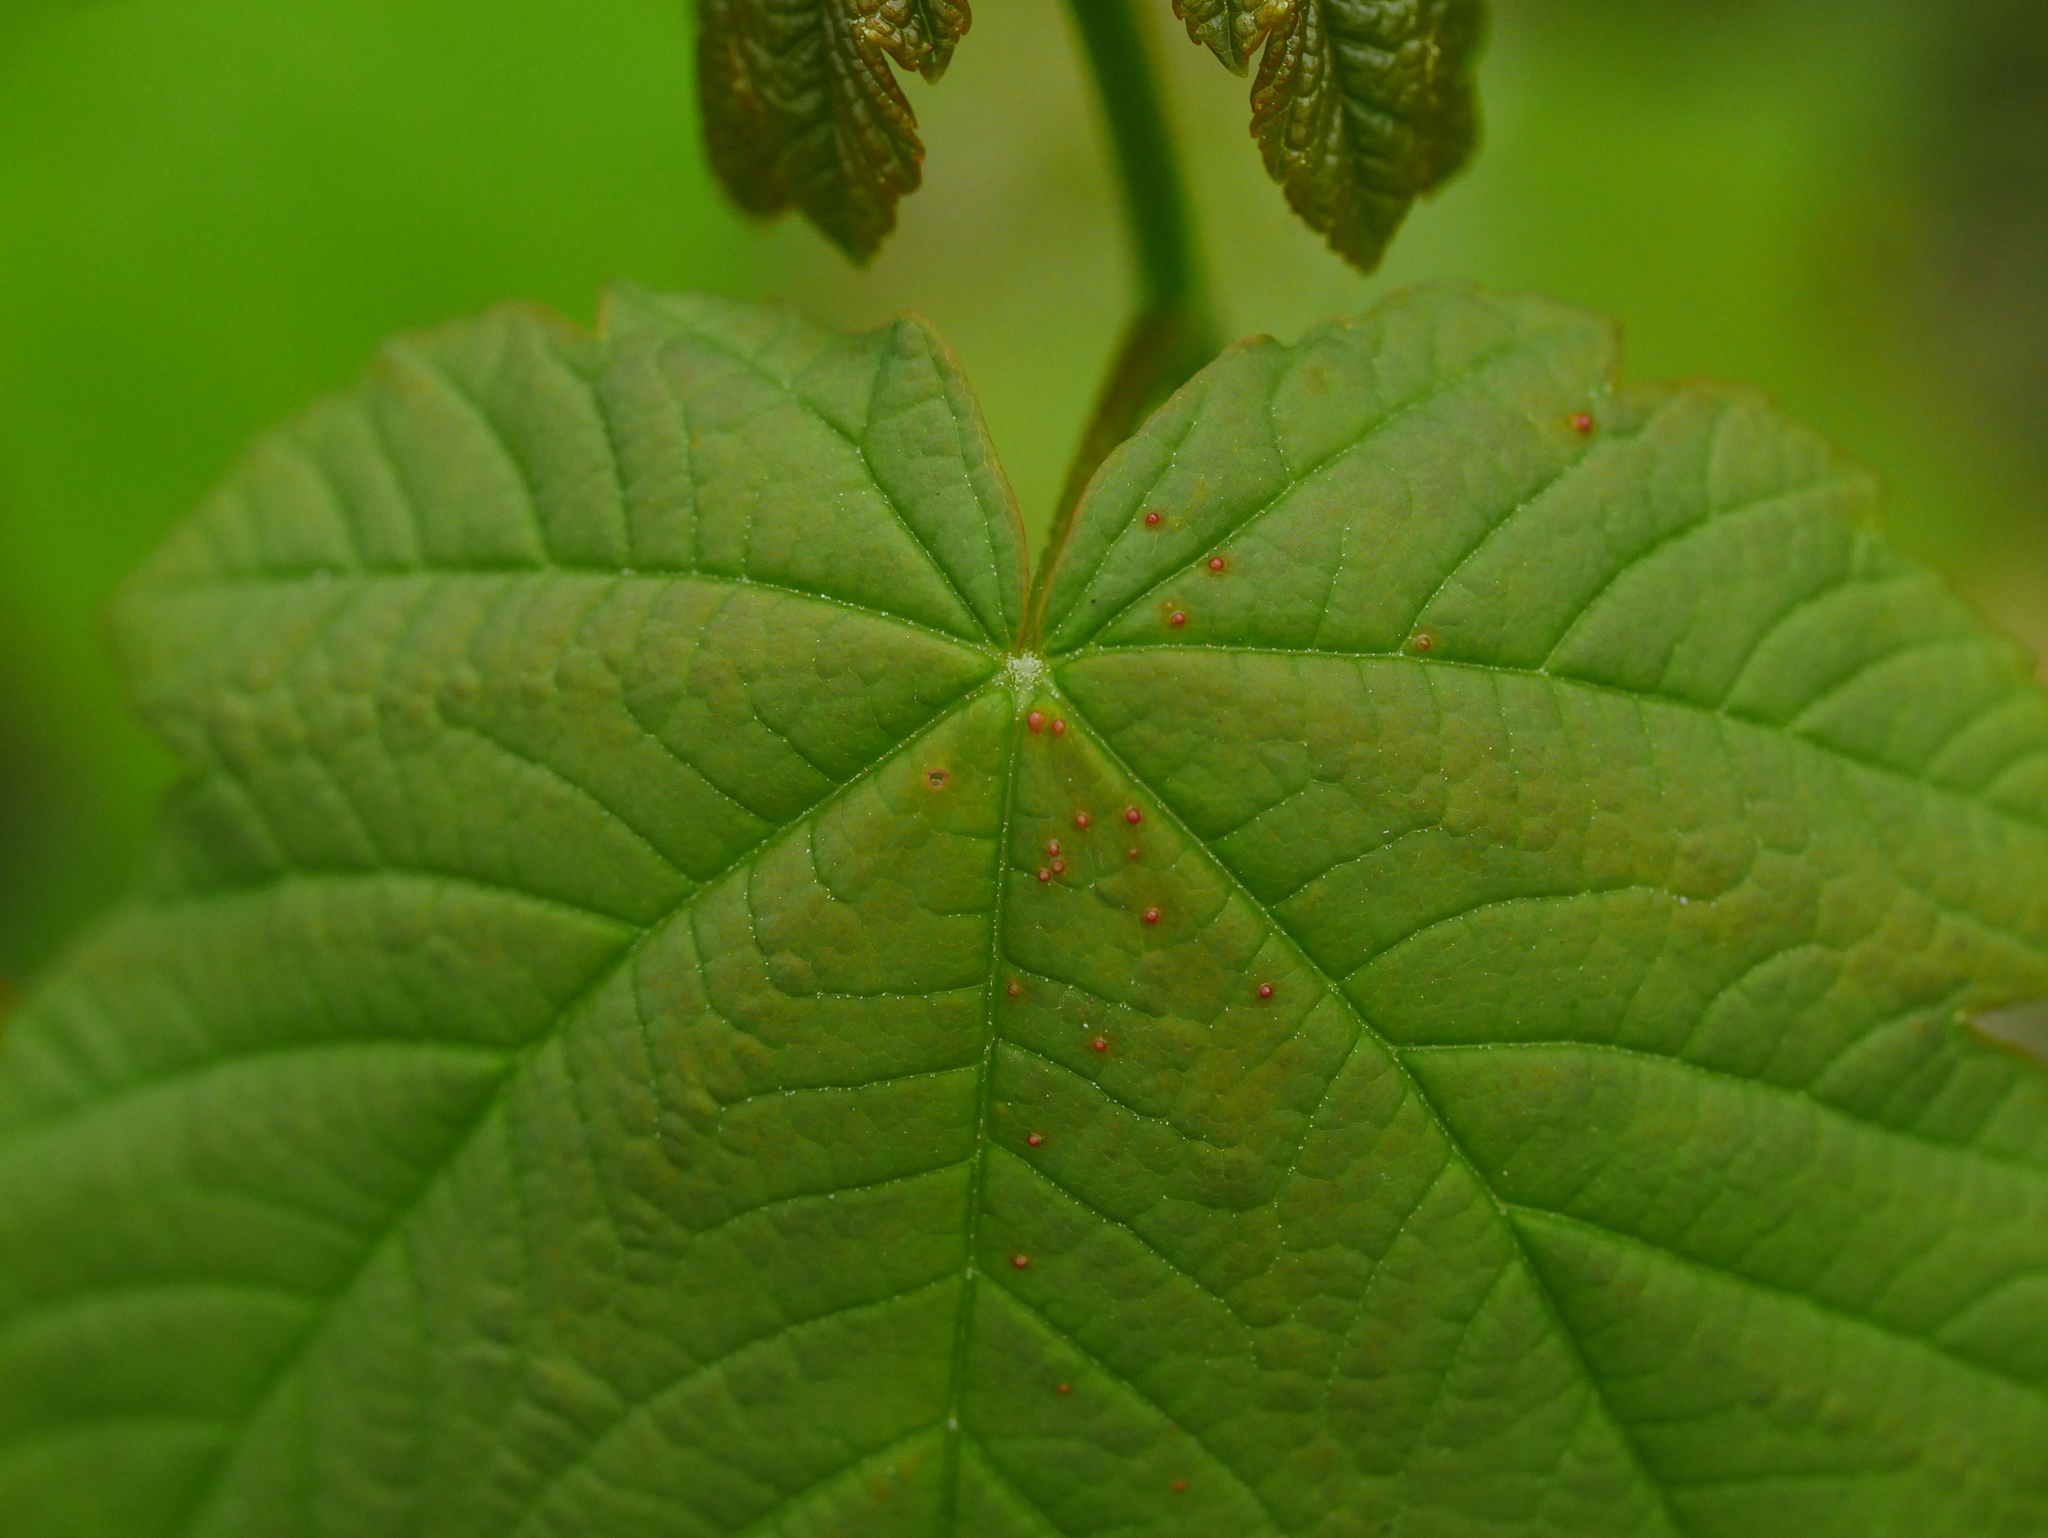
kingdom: Animalia
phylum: Arthropoda
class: Arachnida
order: Trombidiformes
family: Eriophyidae
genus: Aceria
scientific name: Aceria cephaloneus
